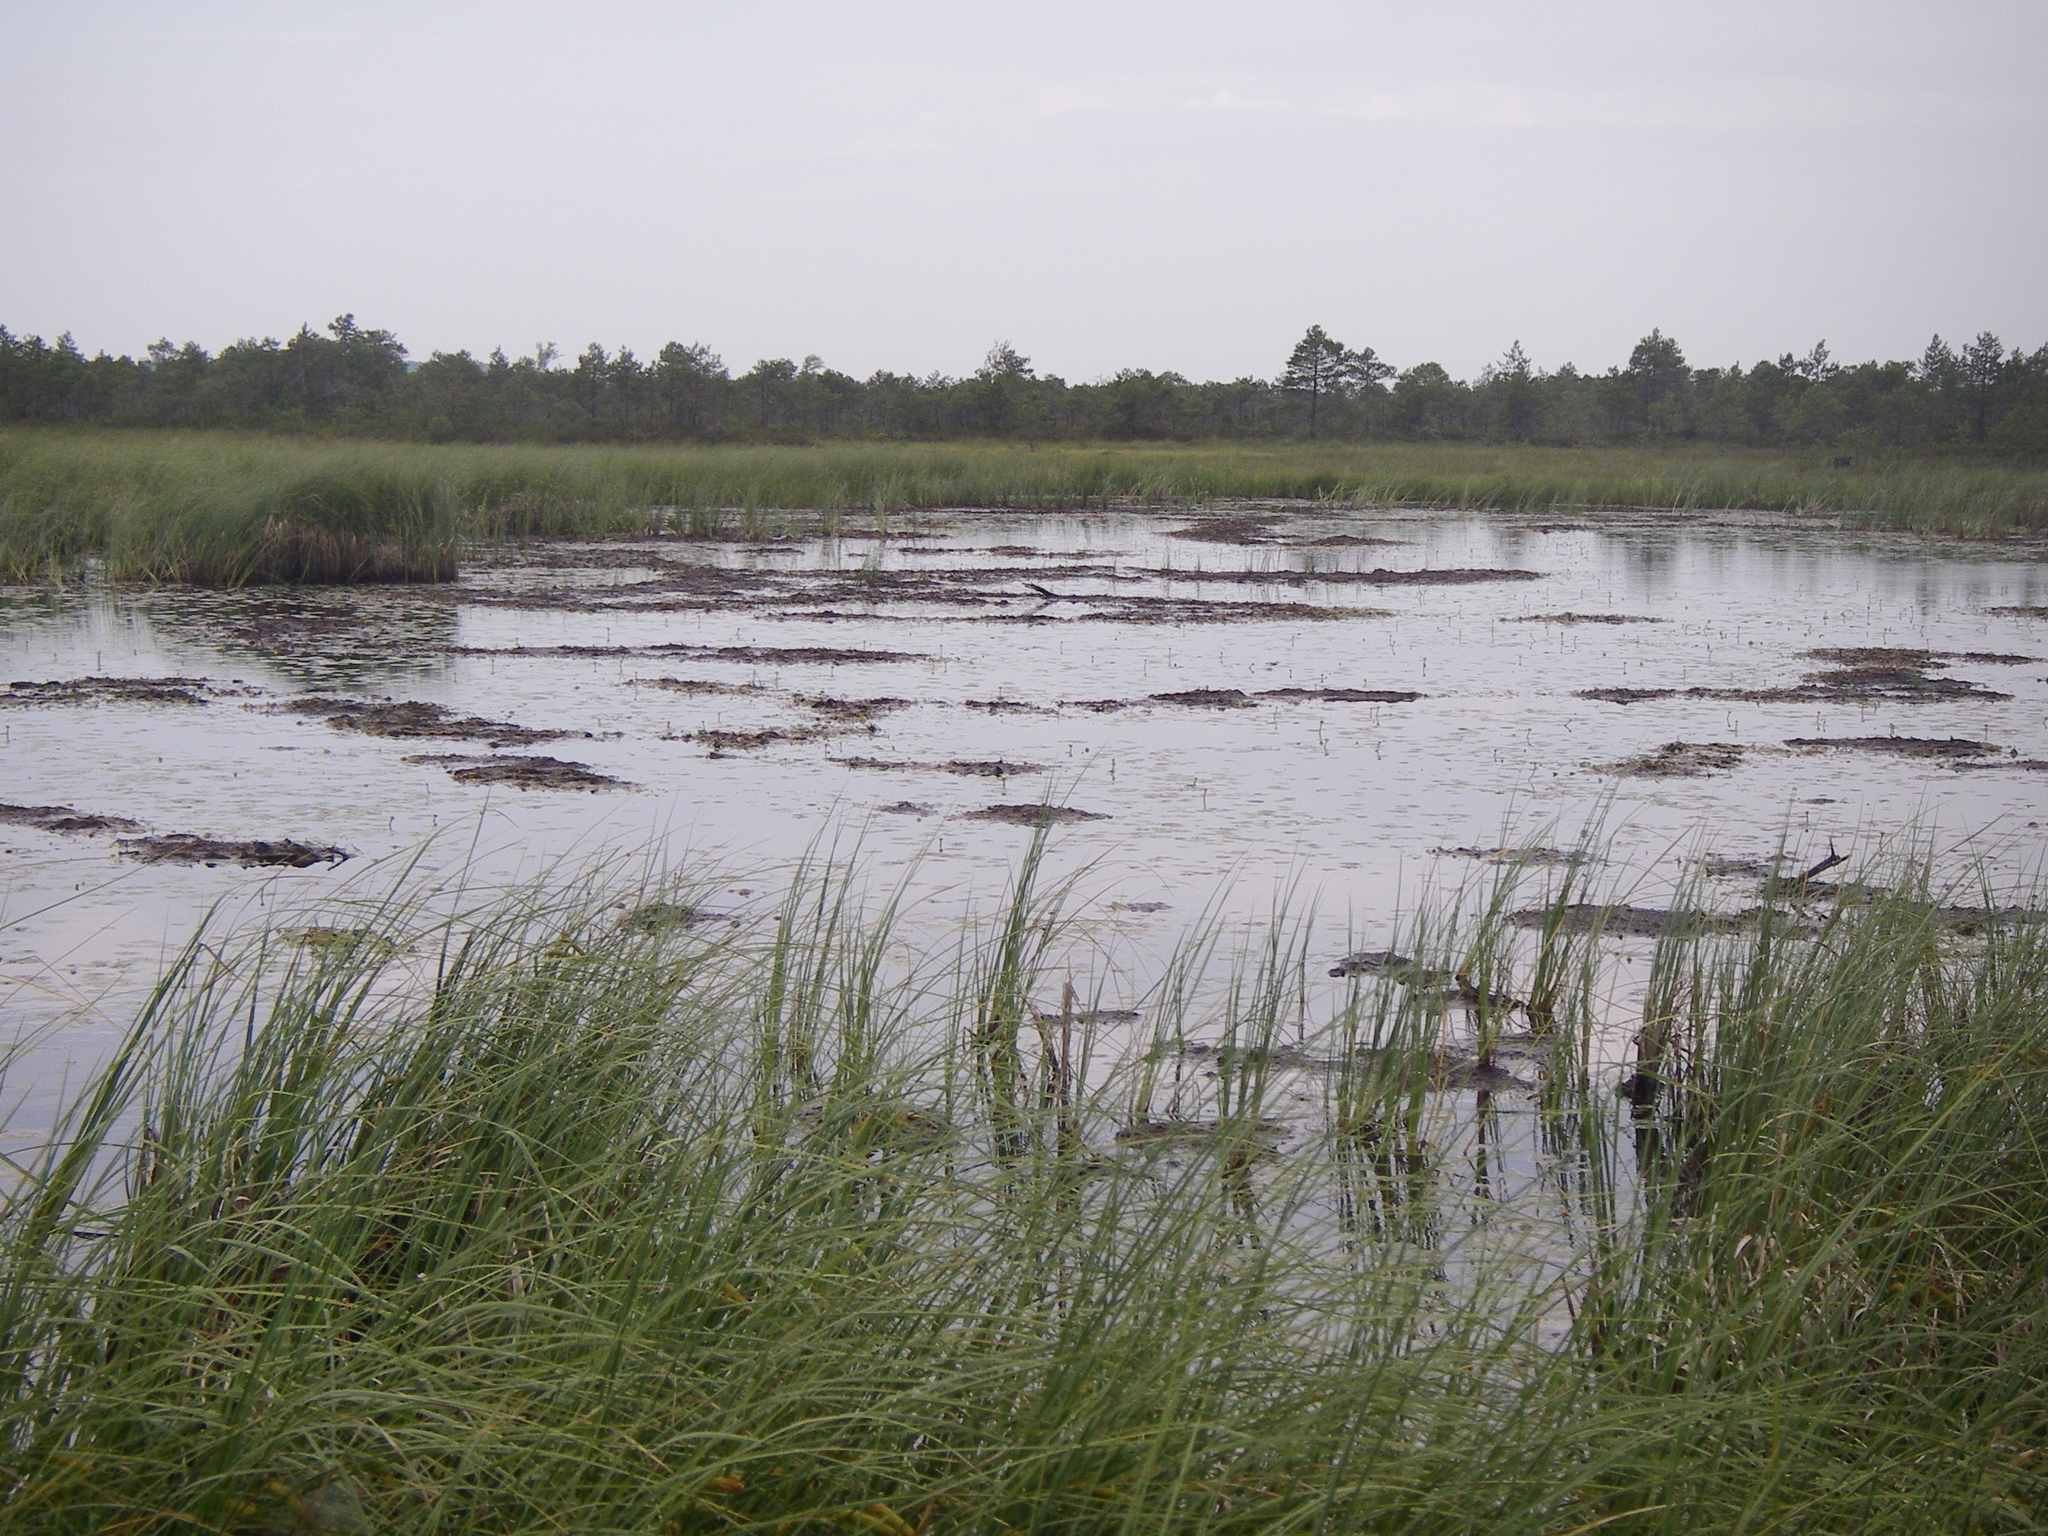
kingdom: Plantae
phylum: Tracheophyta
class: Liliopsida
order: Poales
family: Cyperaceae
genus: Carex
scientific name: Carex rostrata
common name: Bottle sedge
